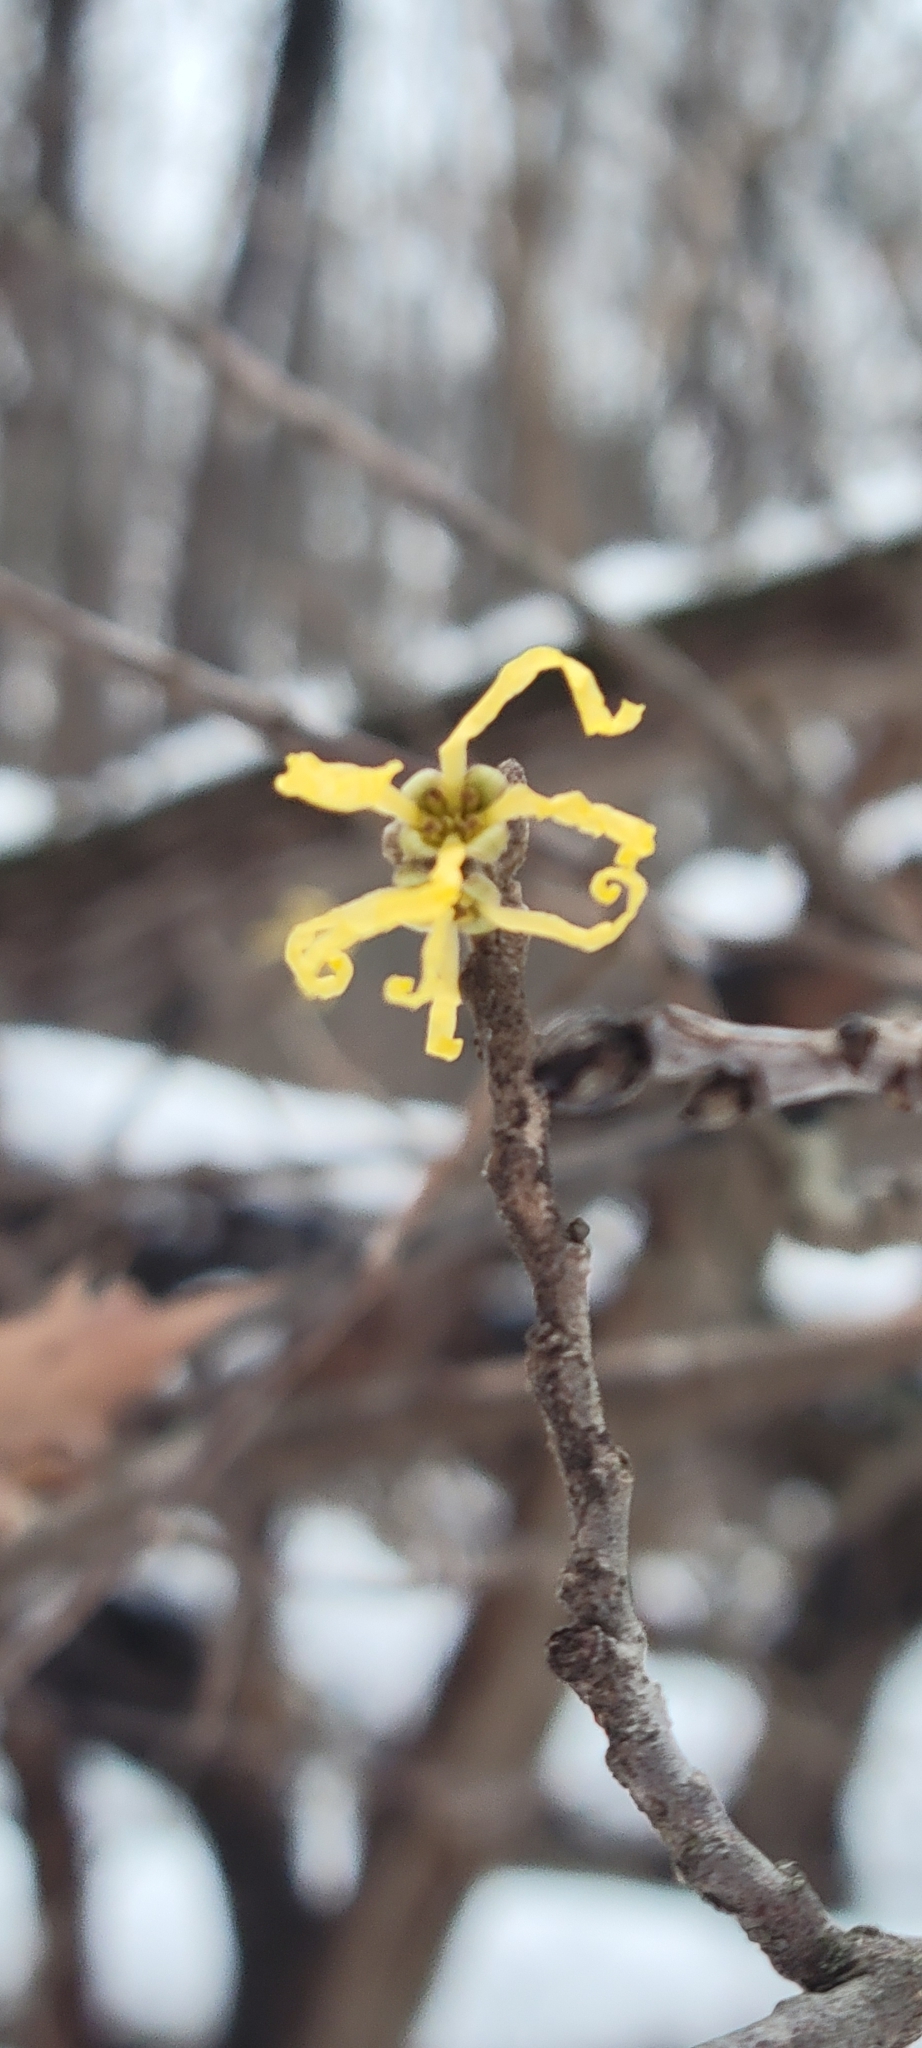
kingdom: Plantae
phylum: Tracheophyta
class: Magnoliopsida
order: Saxifragales
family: Hamamelidaceae
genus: Hamamelis
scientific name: Hamamelis virginiana
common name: Witch-hazel
